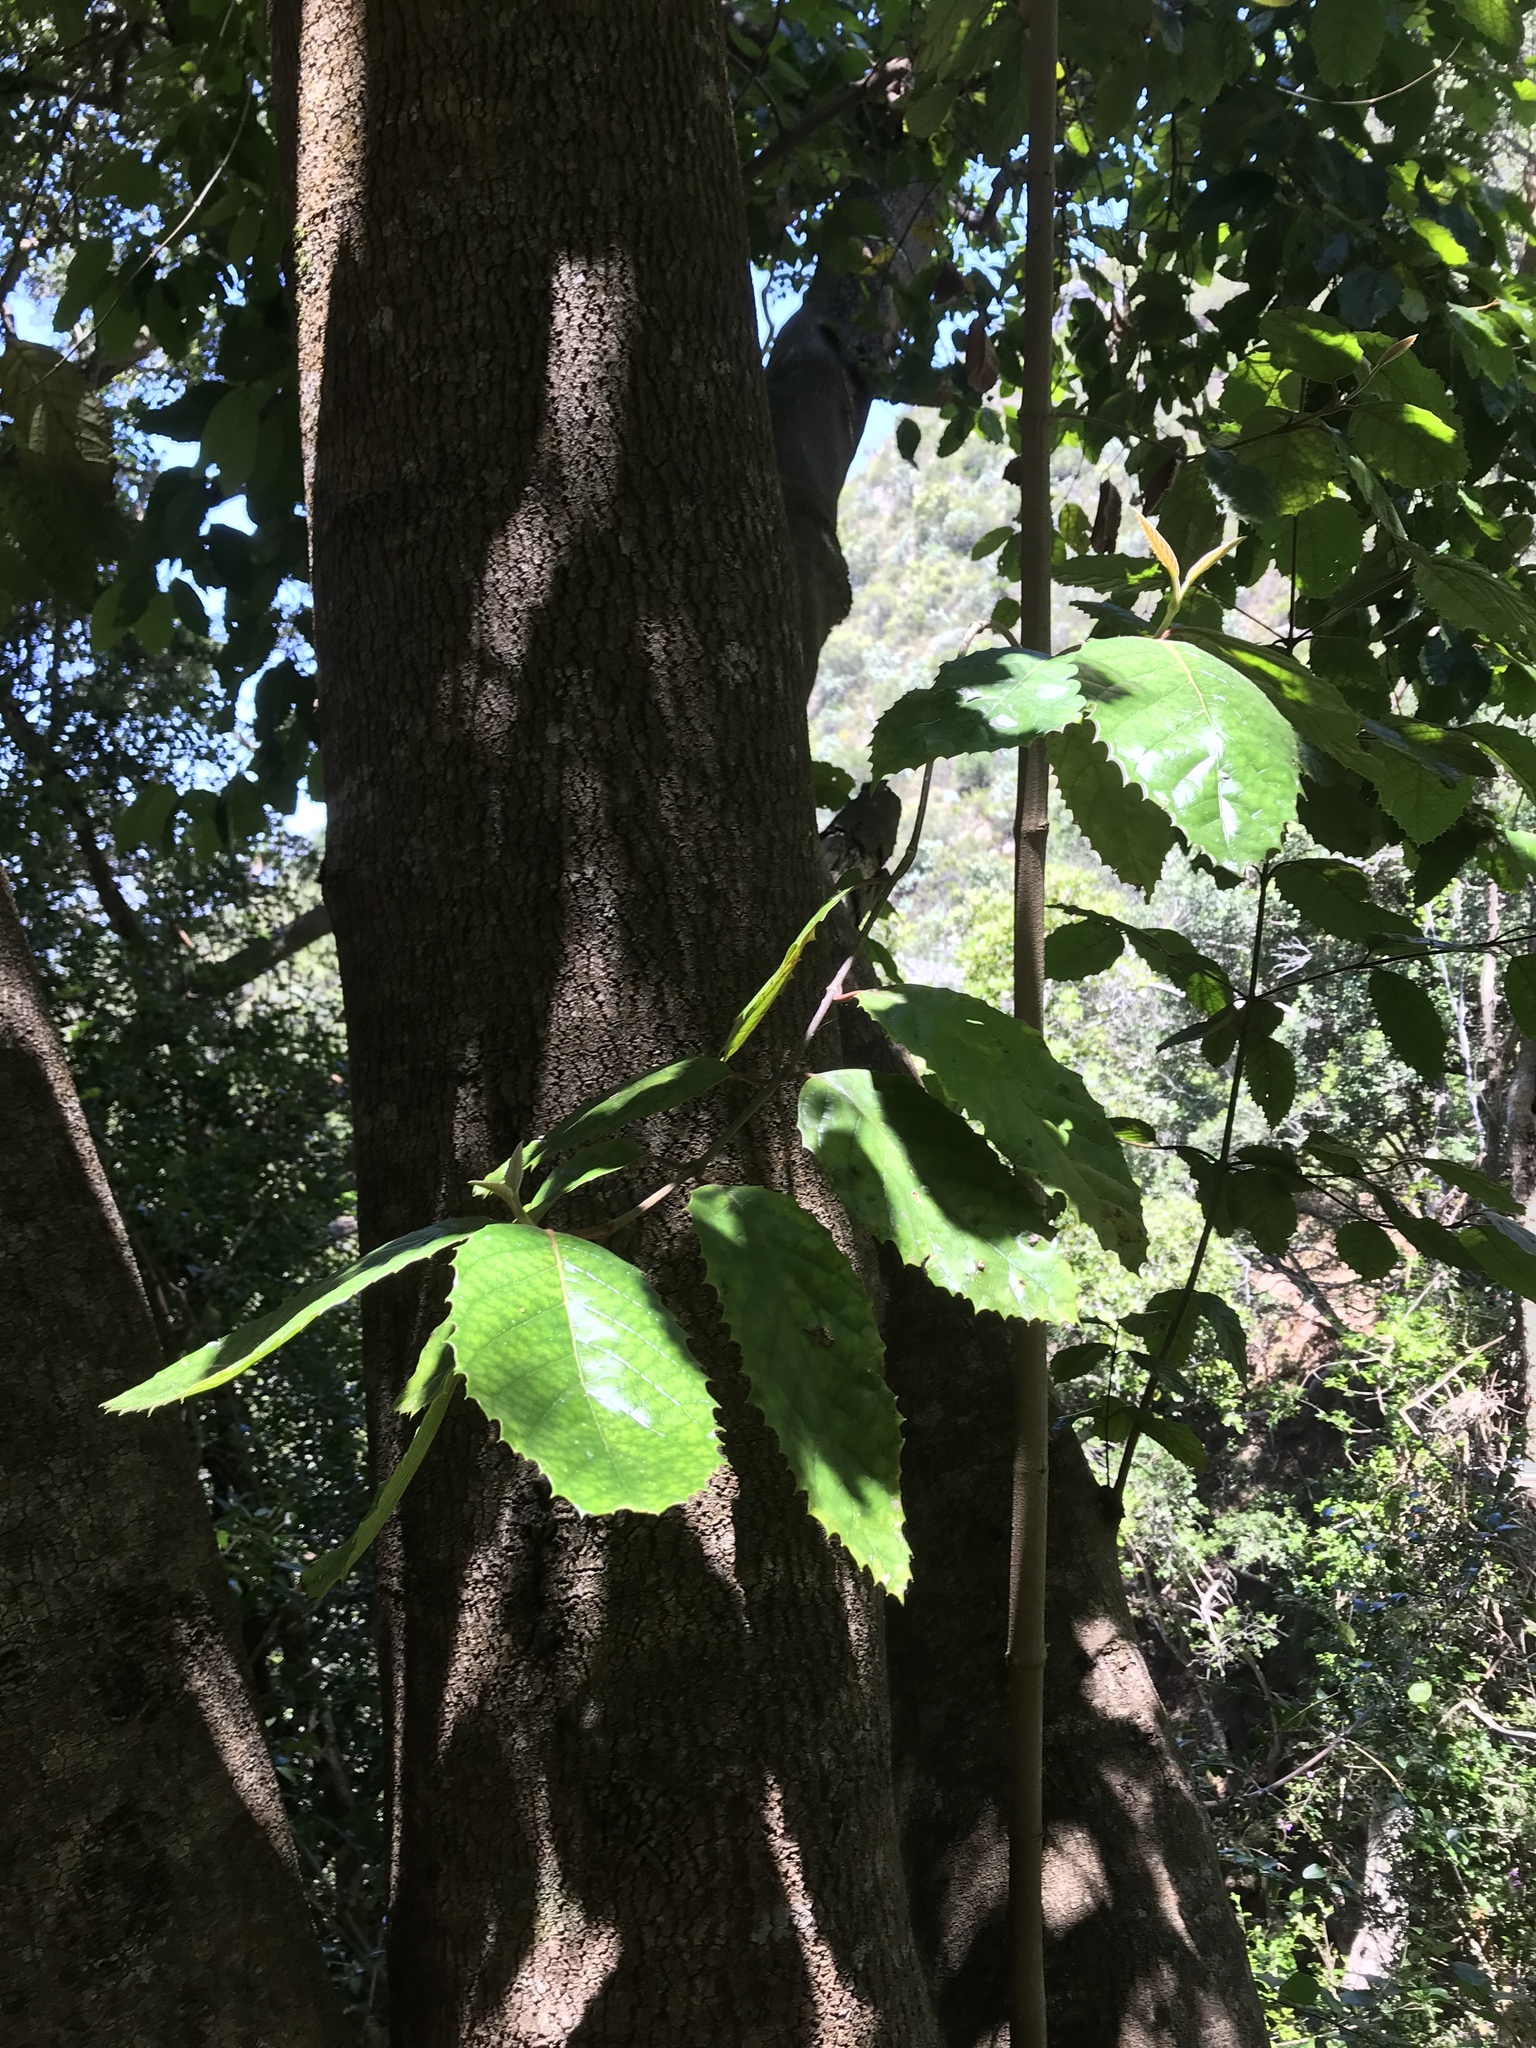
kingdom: Plantae
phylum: Tracheophyta
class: Magnoliopsida
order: Cornales
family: Curtisiaceae
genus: Curtisia
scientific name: Curtisia dentata
